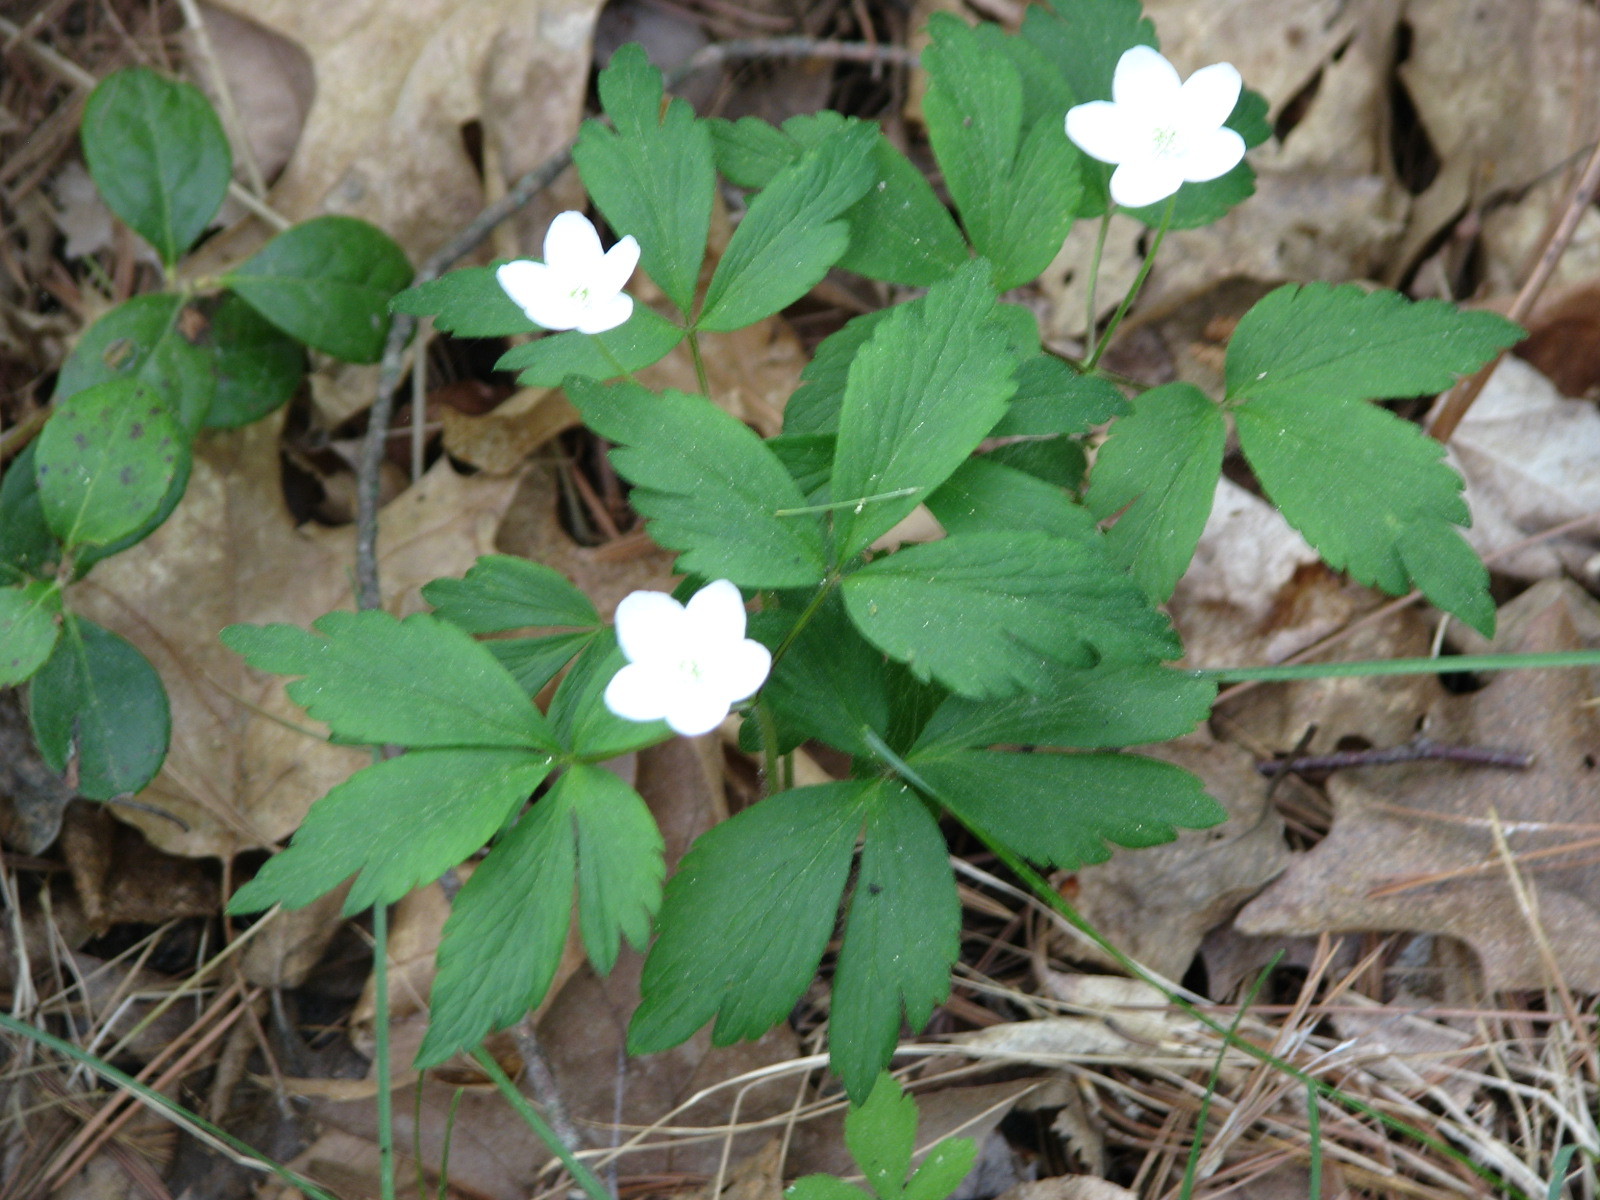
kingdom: Plantae
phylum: Tracheophyta
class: Magnoliopsida
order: Ranunculales
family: Ranunculaceae
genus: Anemone
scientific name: Anemone quinquefolia
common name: Wood anemone
